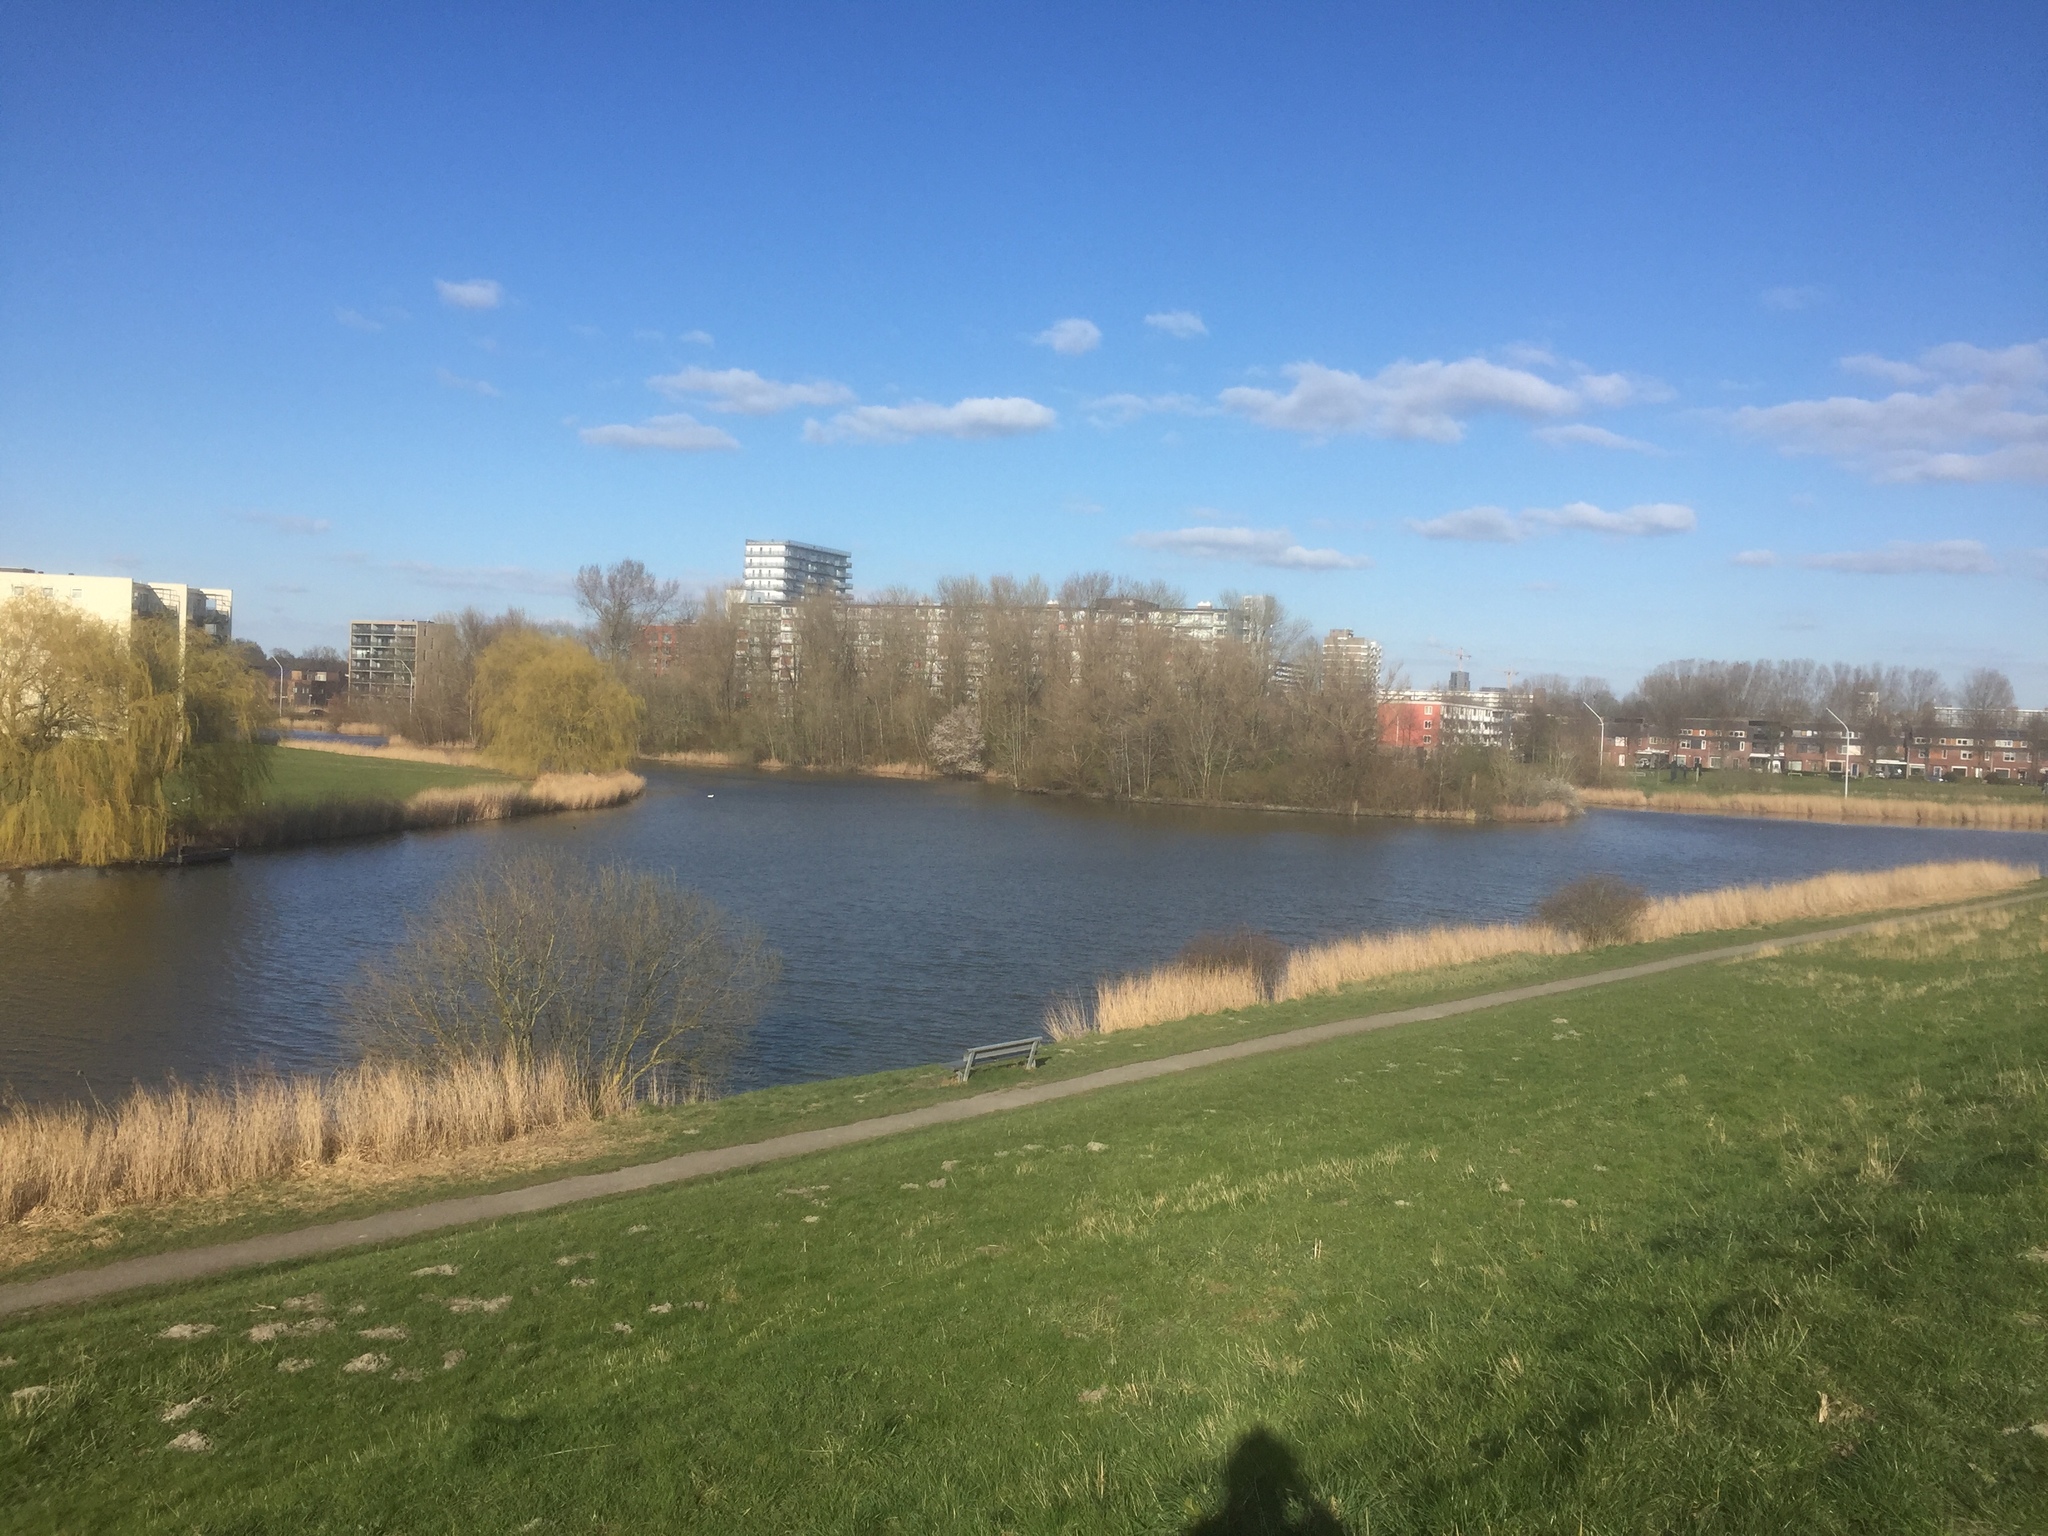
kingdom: Plantae
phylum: Tracheophyta
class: Liliopsida
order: Poales
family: Poaceae
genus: Phragmites
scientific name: Phragmites australis
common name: Common reed
